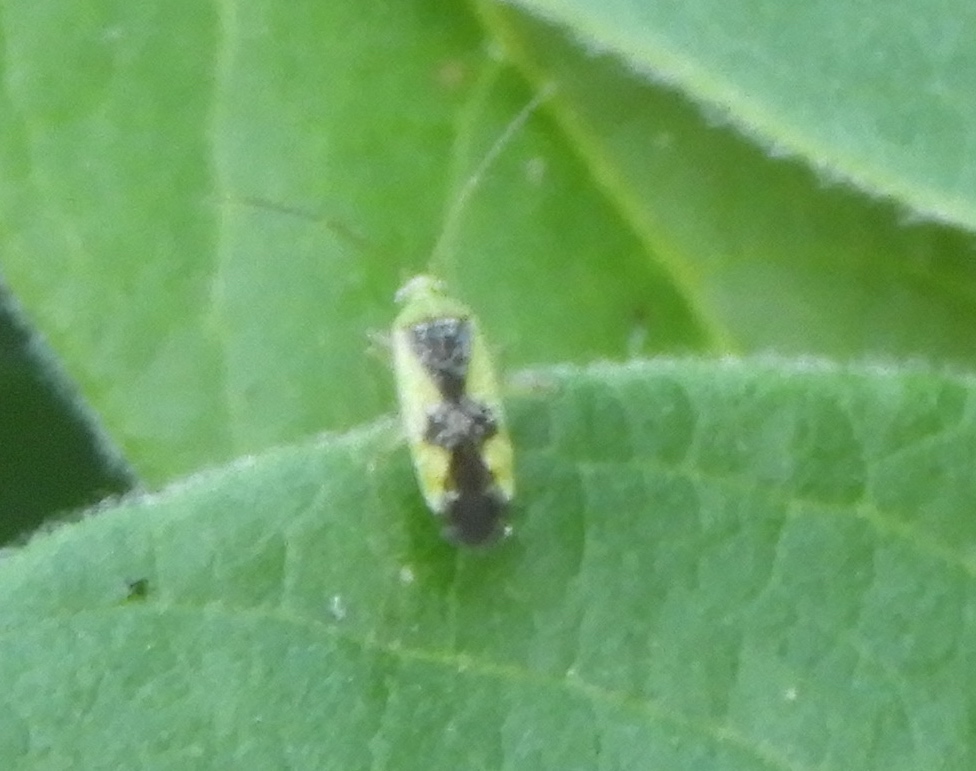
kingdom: Animalia
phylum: Arthropoda
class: Insecta
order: Hemiptera
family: Miridae
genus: Reuteroscopus
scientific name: Reuteroscopus
